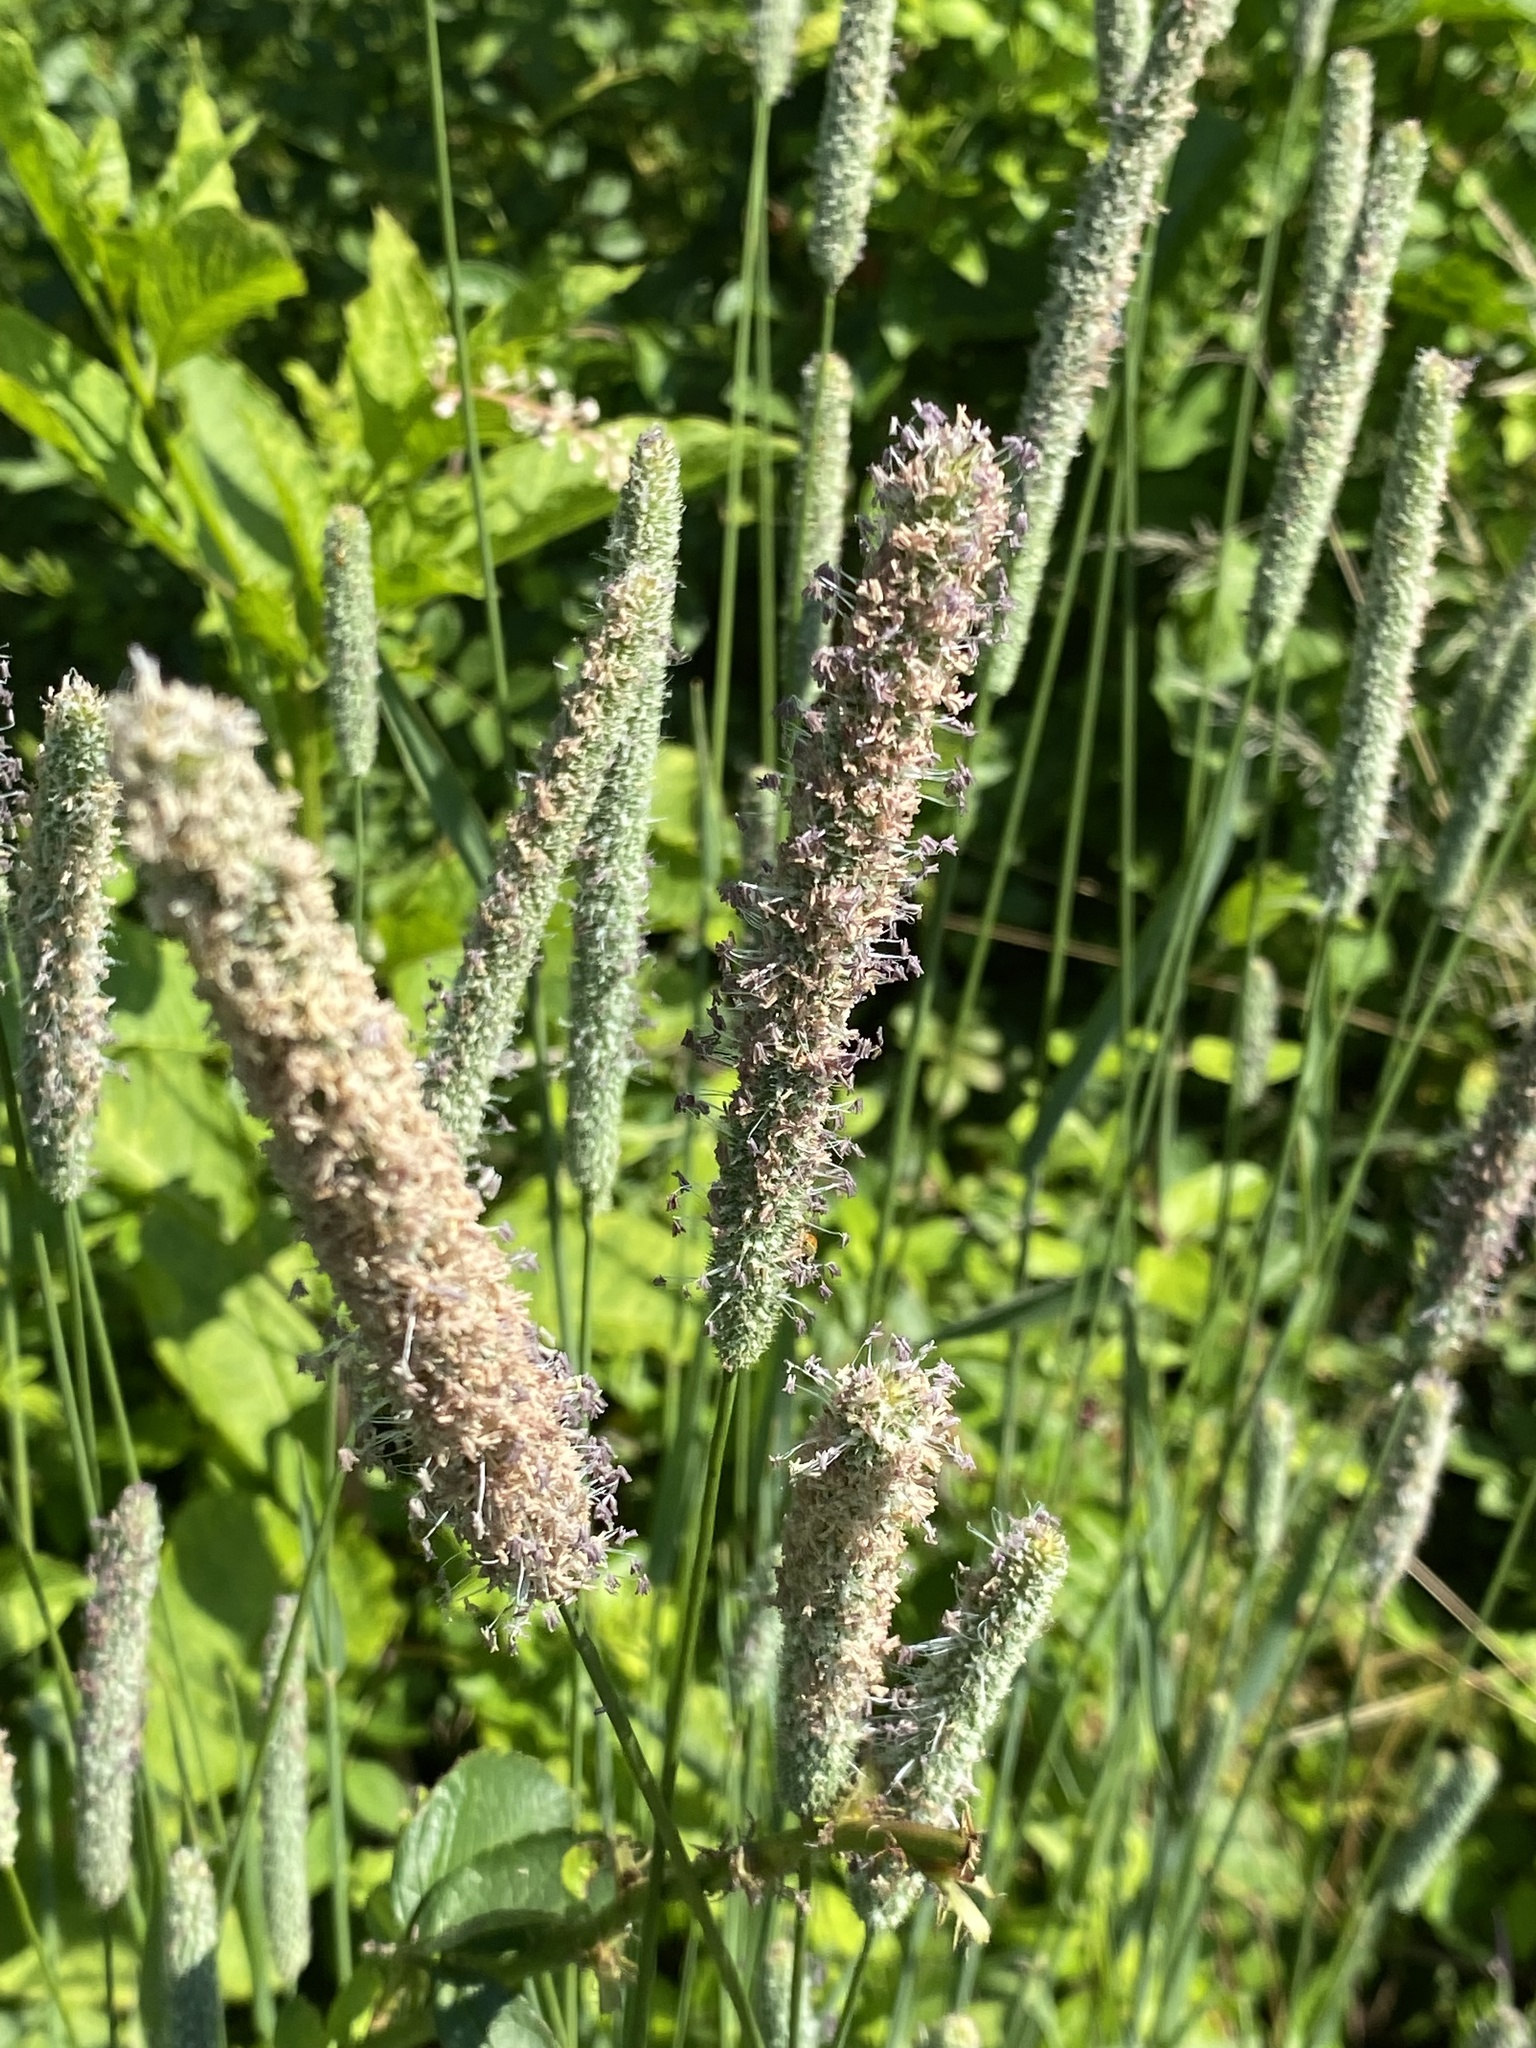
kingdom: Plantae
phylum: Tracheophyta
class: Liliopsida
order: Poales
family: Poaceae
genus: Phleum
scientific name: Phleum pratense
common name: Timothy grass
